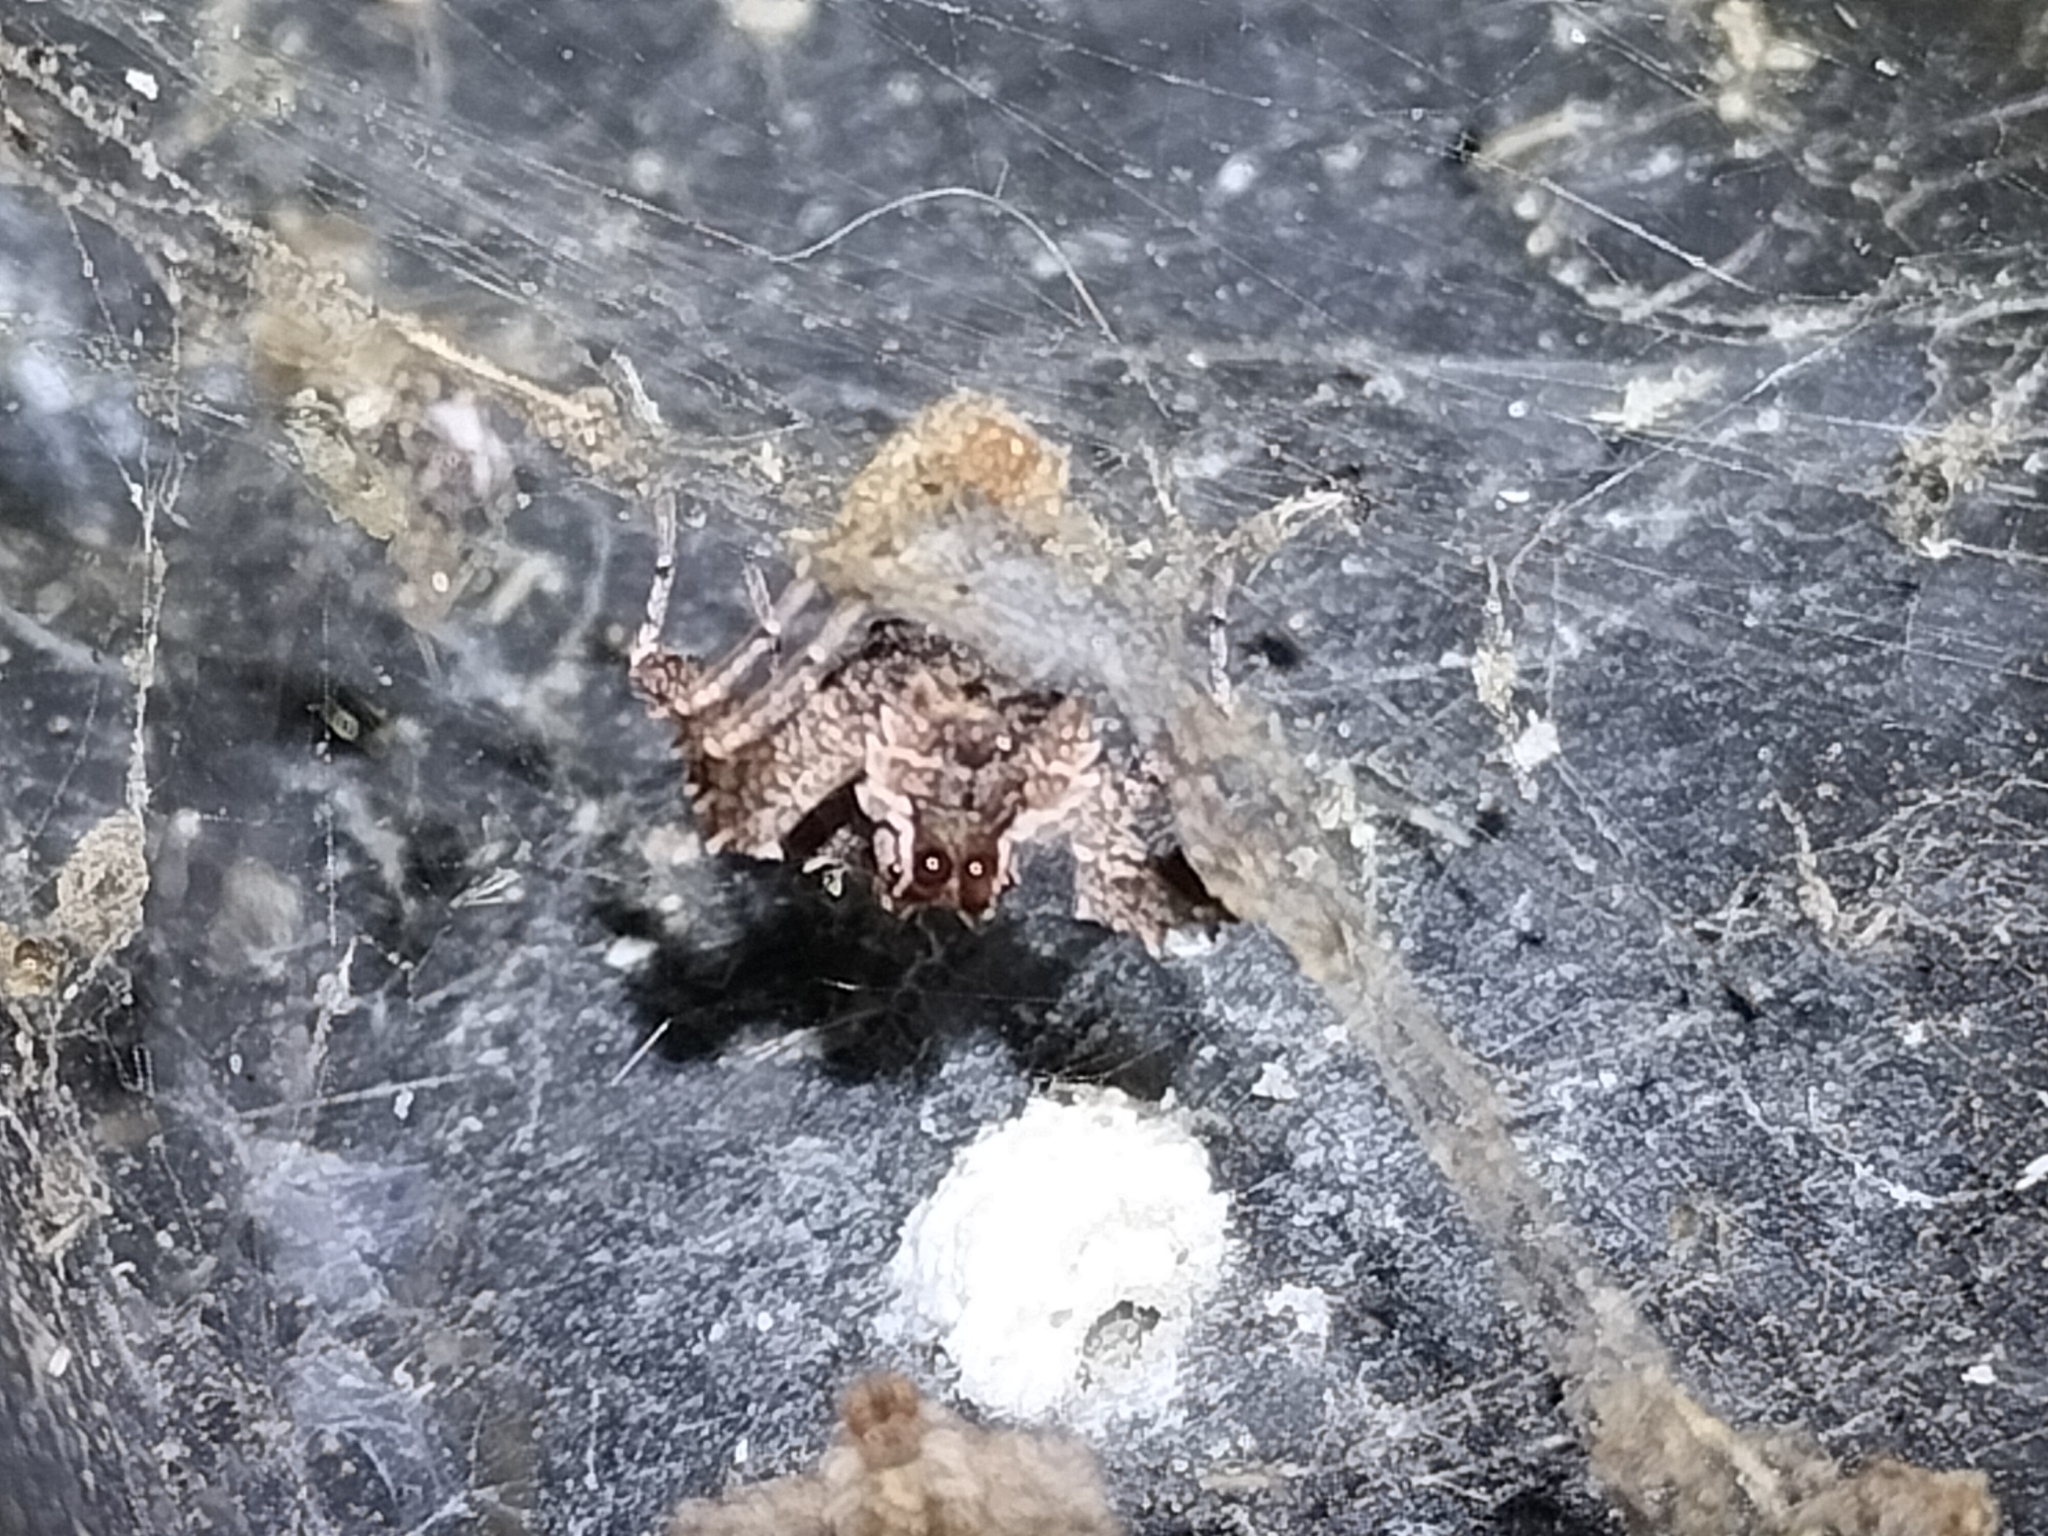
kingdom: Animalia
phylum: Arthropoda
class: Arachnida
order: Araneae
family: Salticidae
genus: Portia
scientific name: Portia fimbriata
